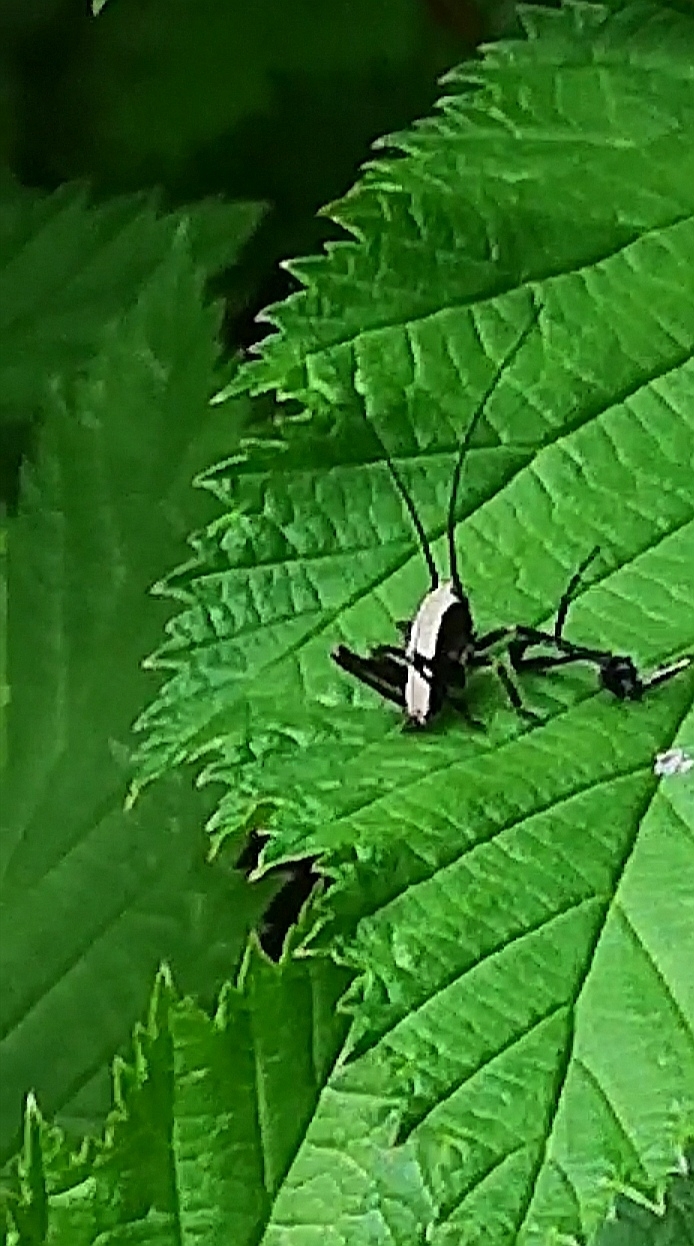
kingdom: Animalia
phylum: Arthropoda
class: Insecta
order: Orthoptera
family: Tettigoniidae
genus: Pholidoptera
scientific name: Pholidoptera griseoaptera
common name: Dark bush-cricket
